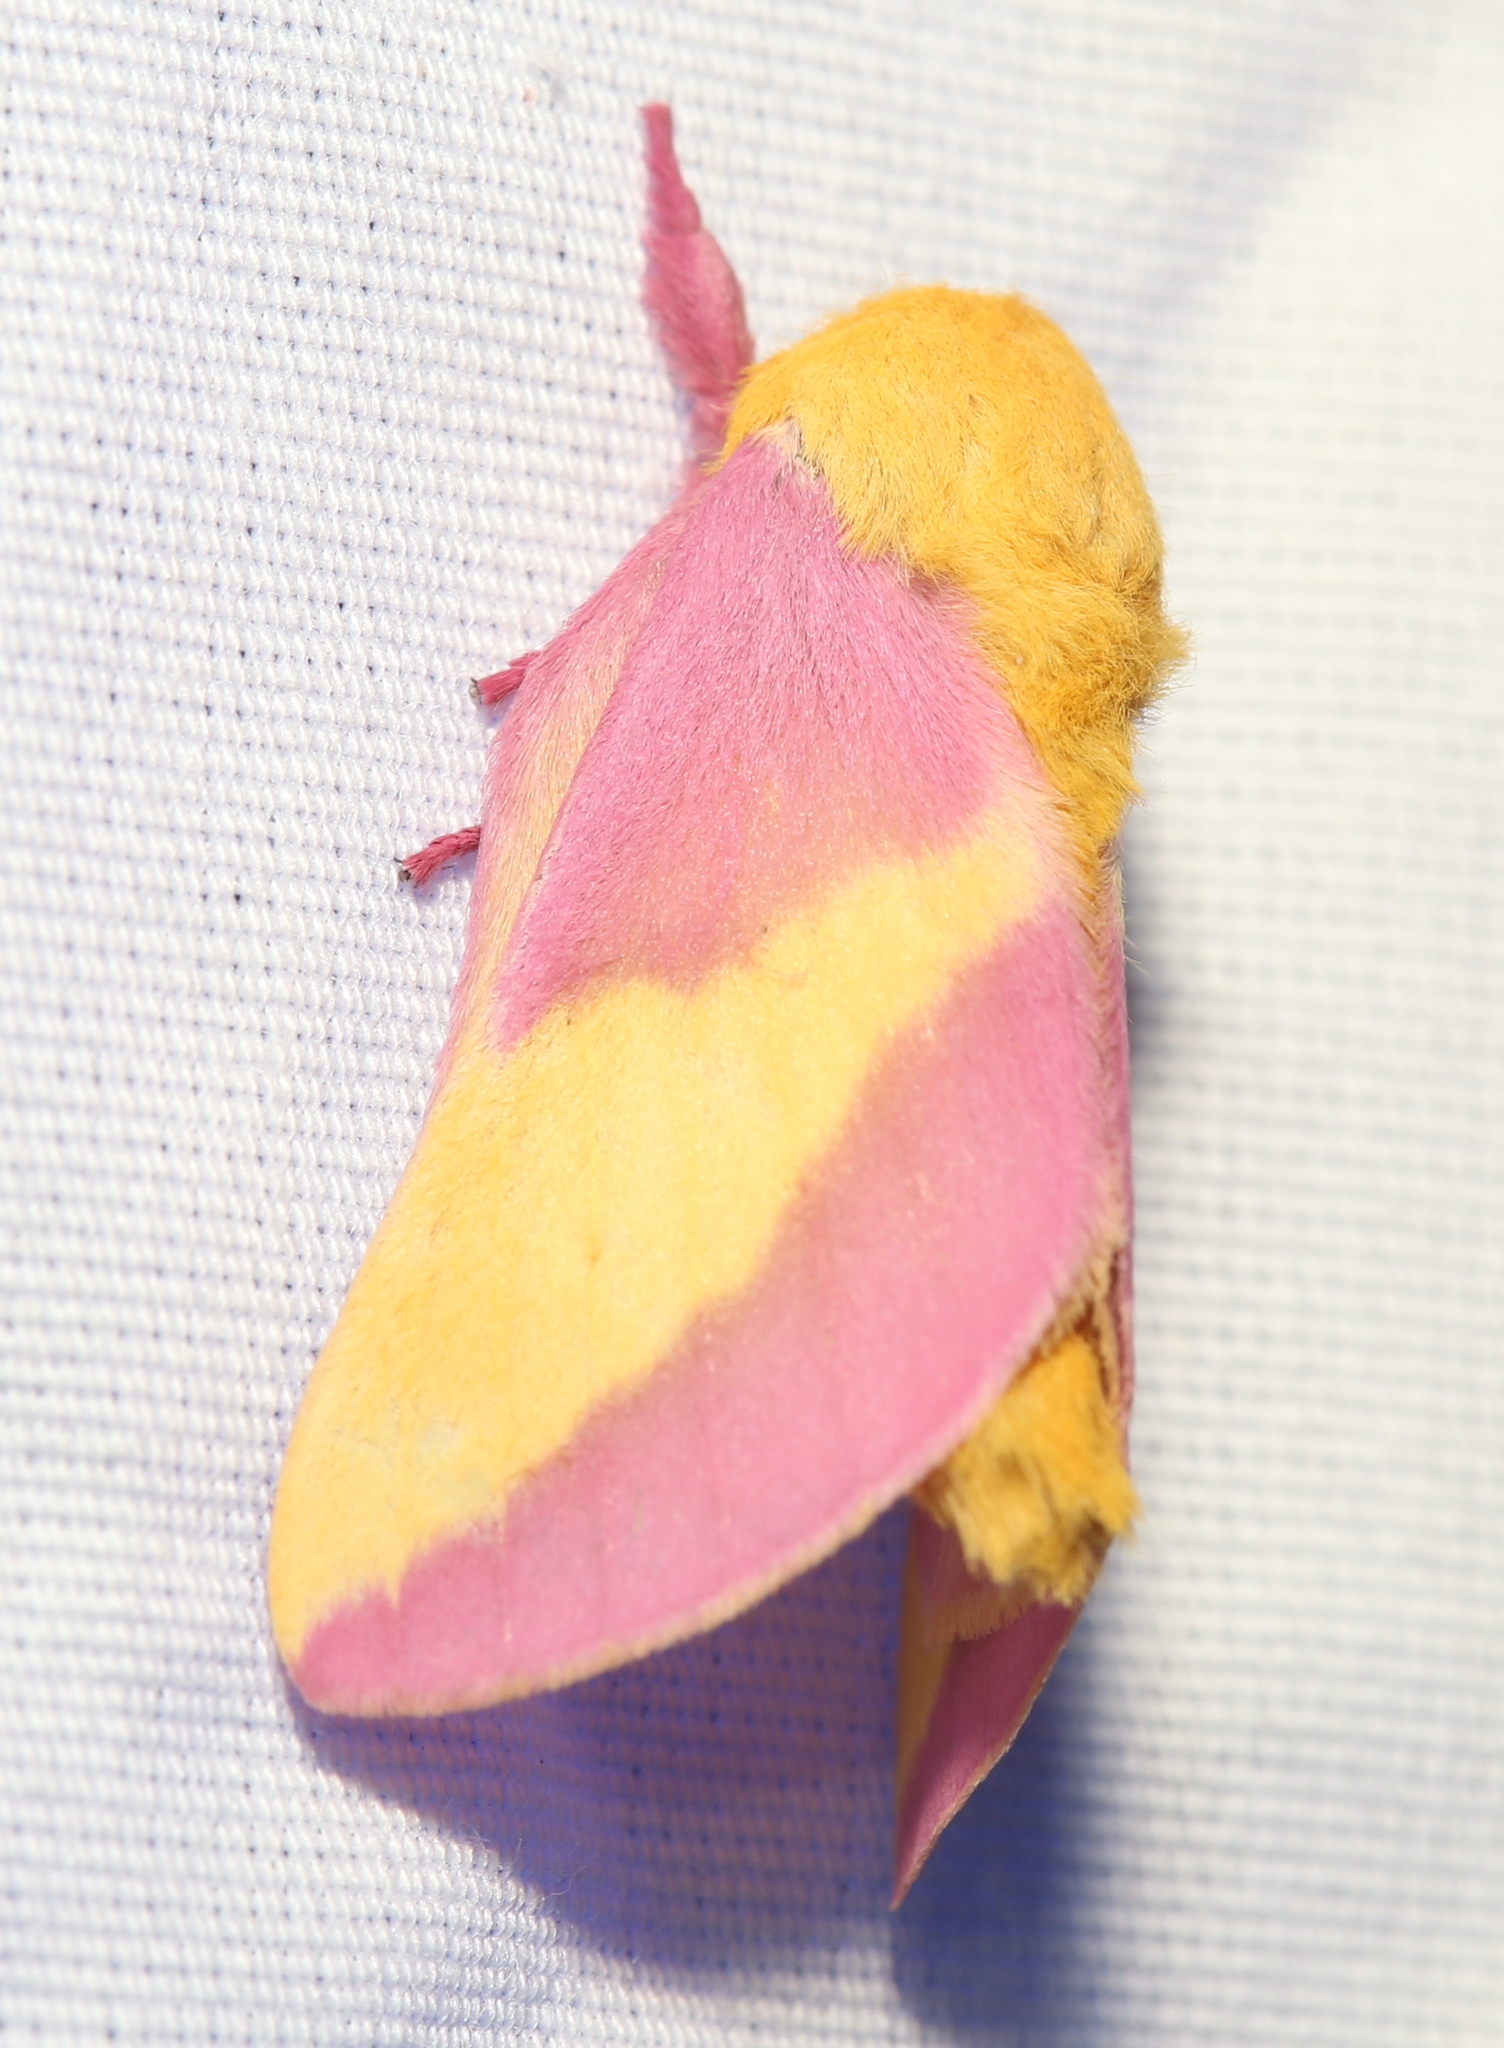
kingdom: Animalia
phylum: Arthropoda
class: Insecta
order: Lepidoptera
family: Saturniidae
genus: Dryocampa
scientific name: Dryocampa rubicunda
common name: Rosy maple moth
